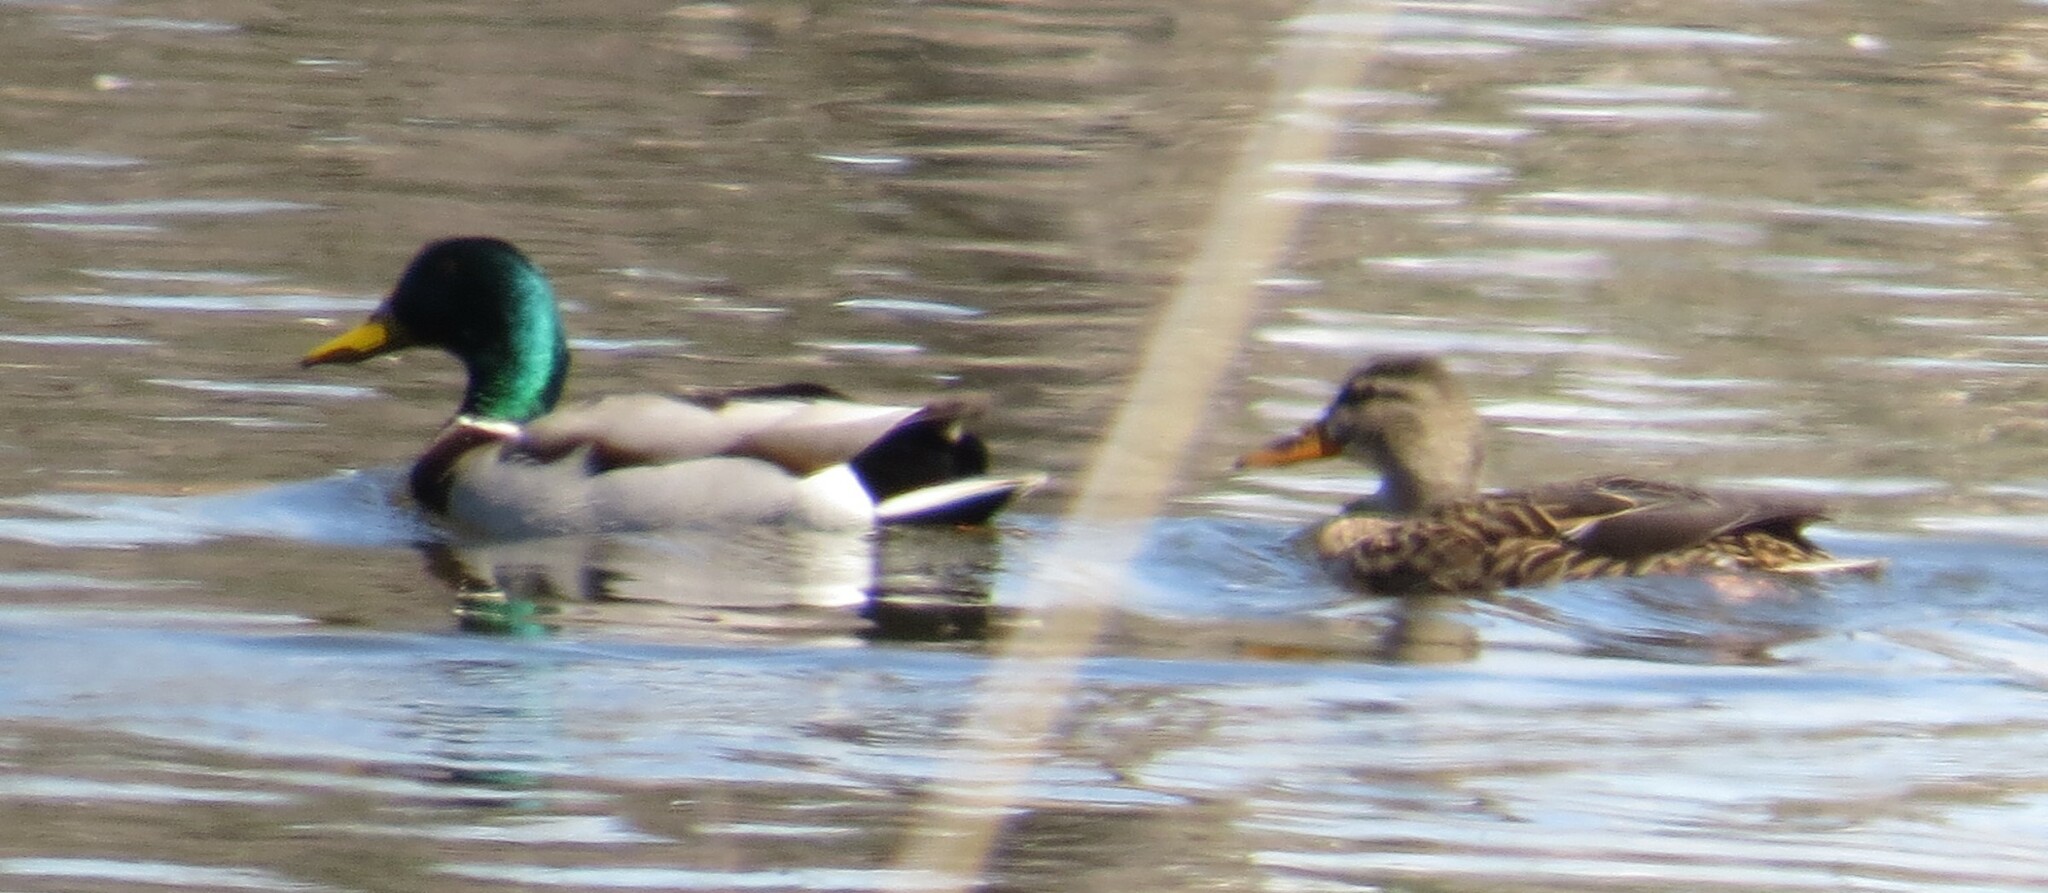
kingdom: Animalia
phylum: Chordata
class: Aves
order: Anseriformes
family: Anatidae
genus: Anas
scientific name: Anas platyrhynchos
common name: Mallard
